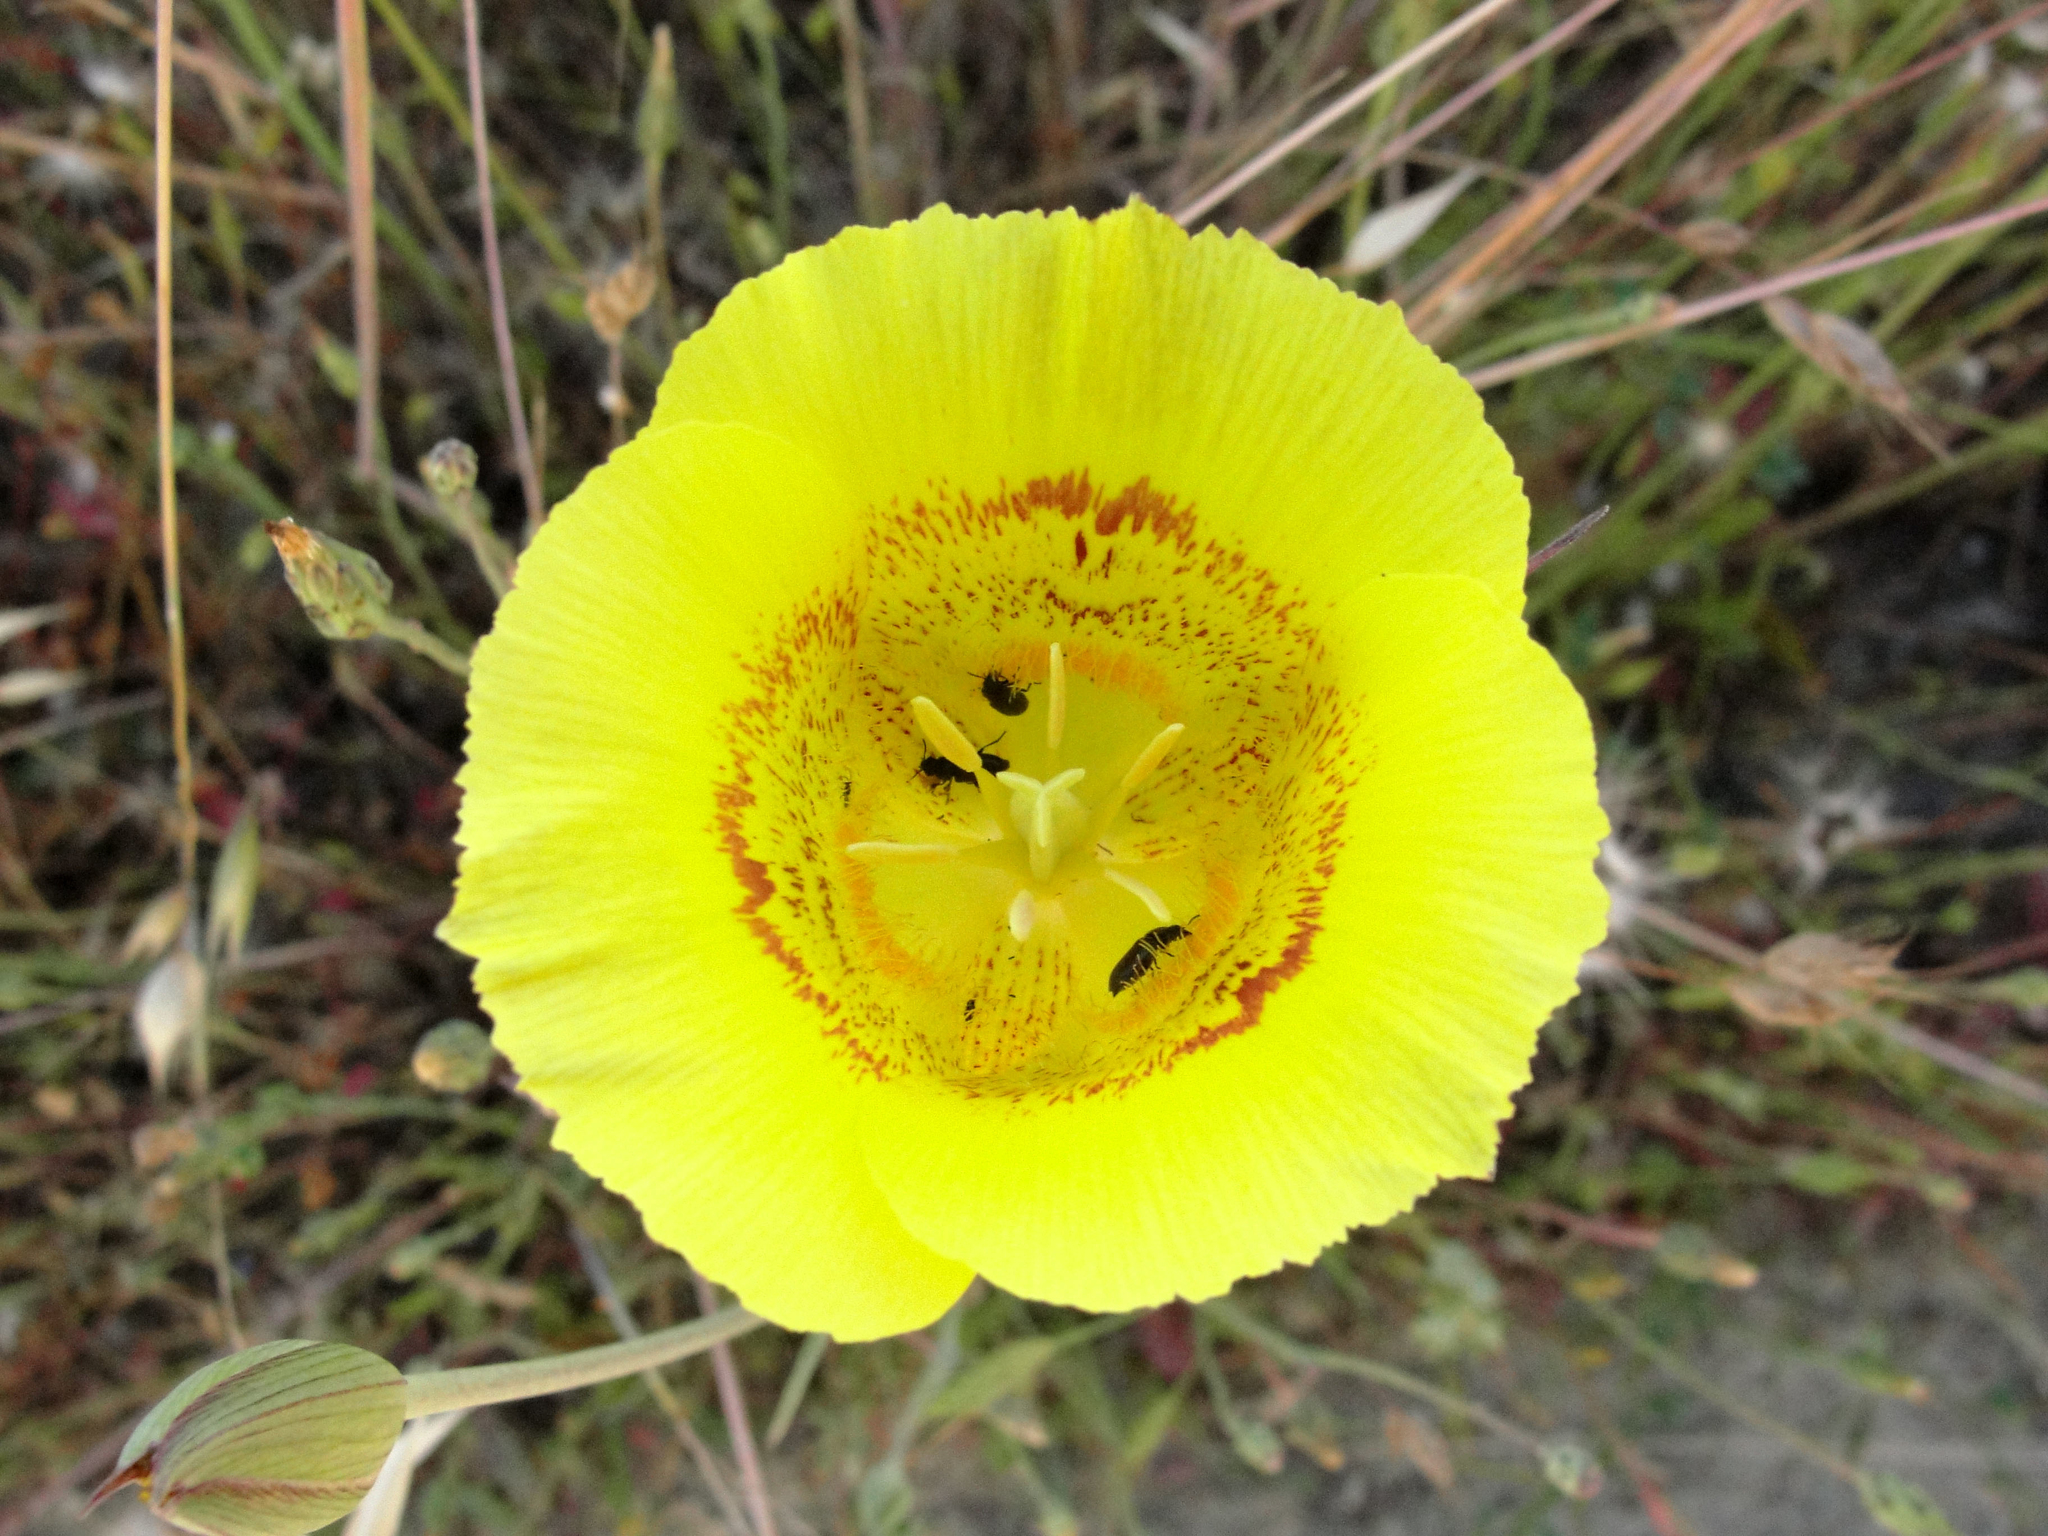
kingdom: Plantae
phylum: Tracheophyta
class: Liliopsida
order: Liliales
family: Liliaceae
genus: Calochortus
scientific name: Calochortus luteus
